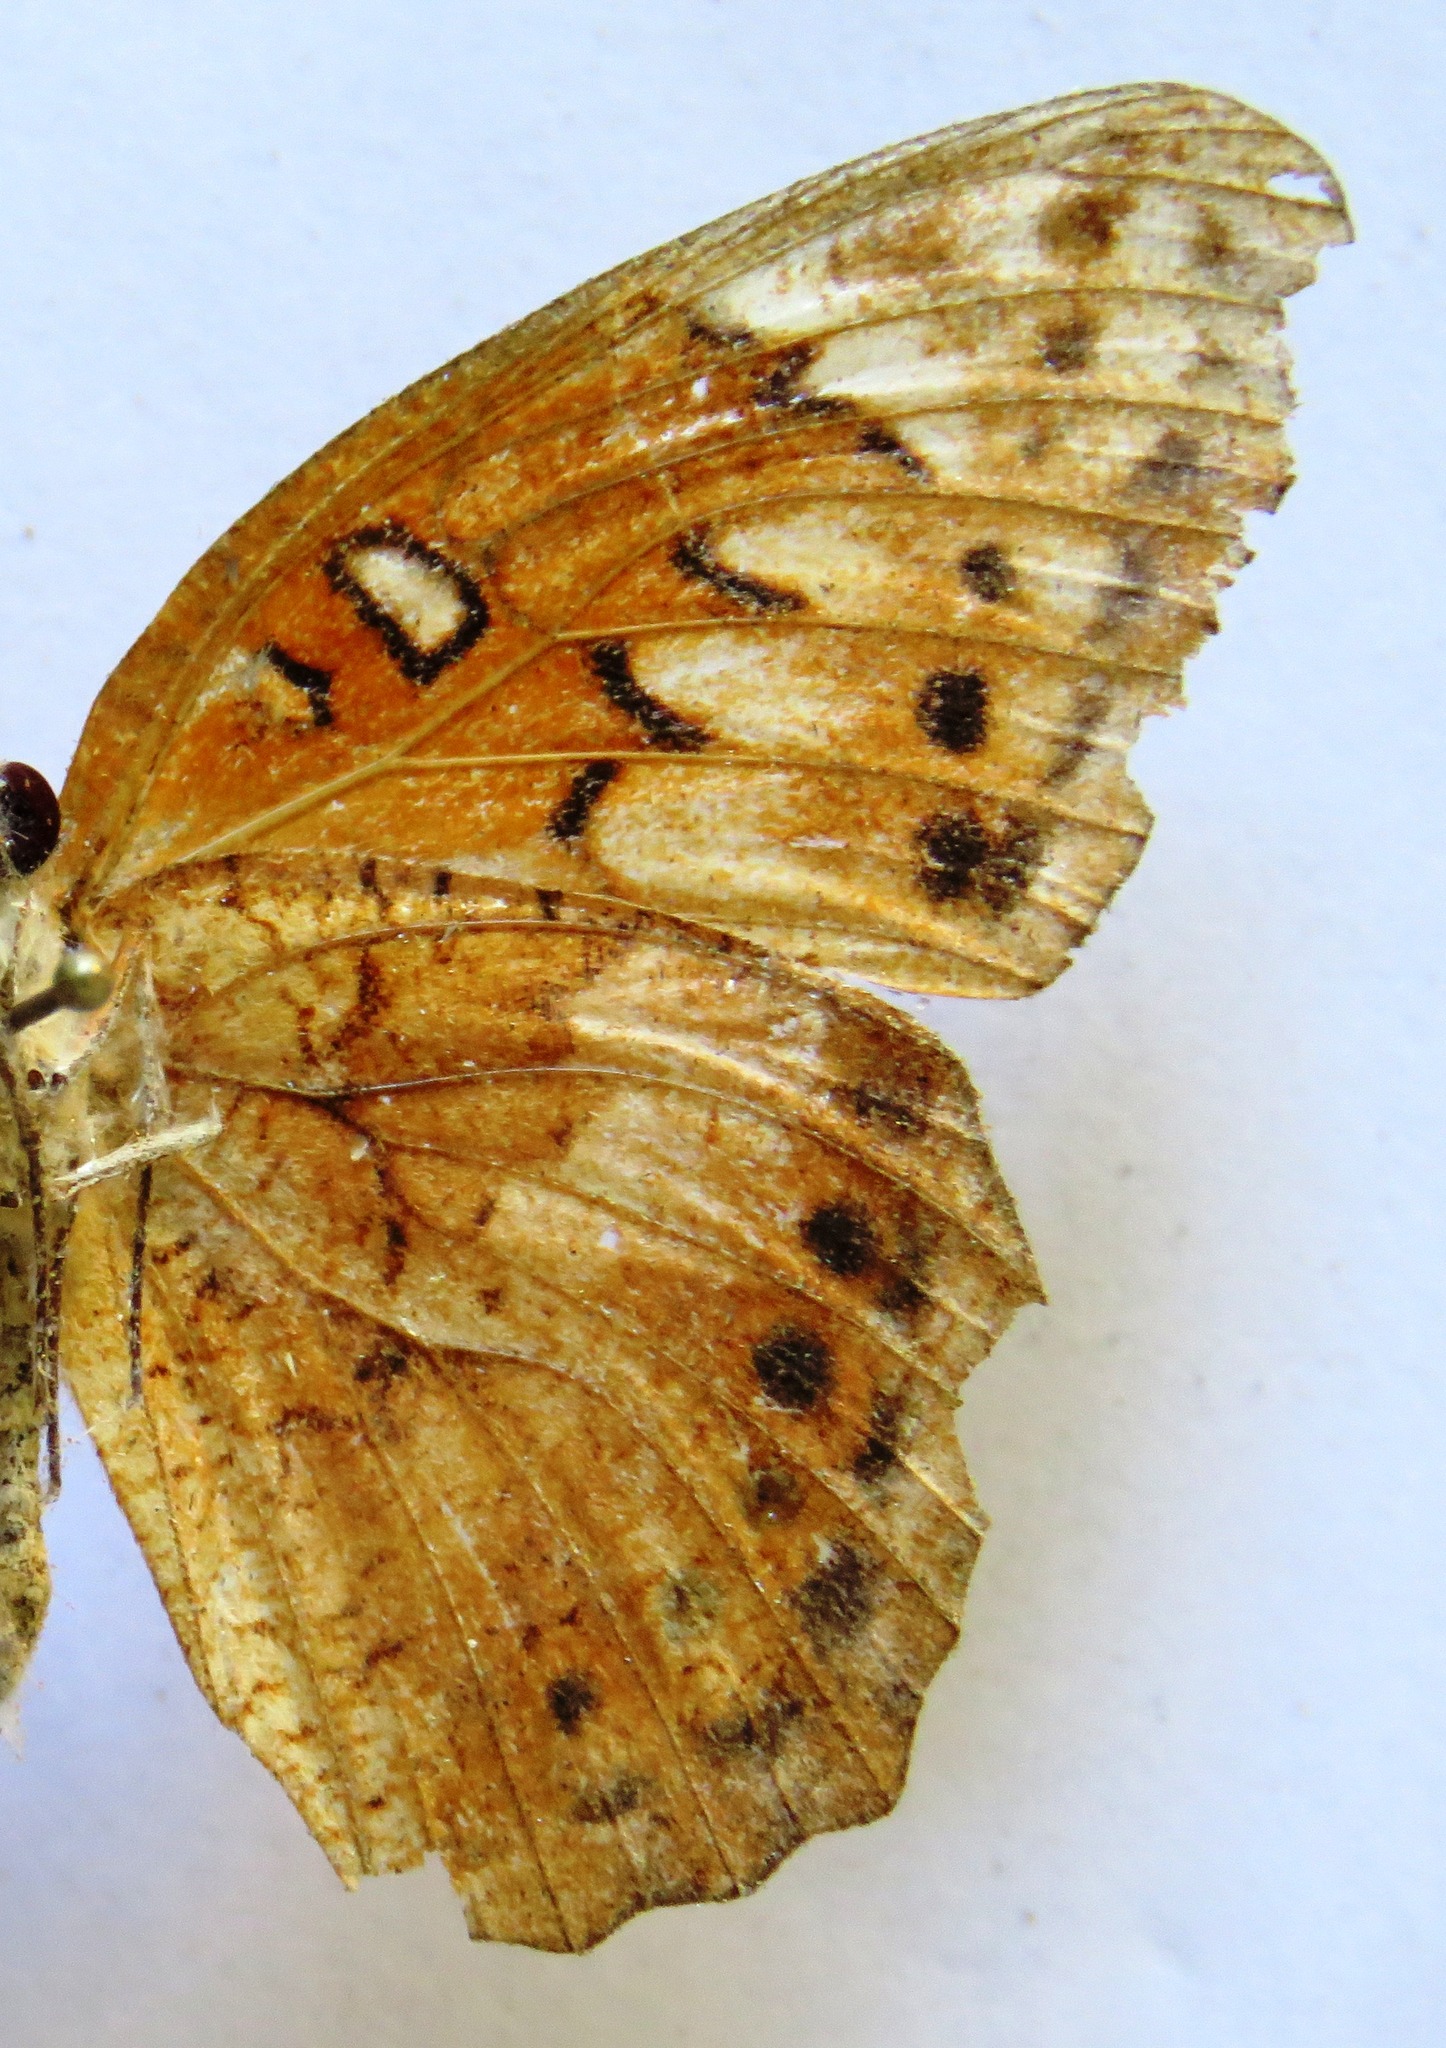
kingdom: Animalia
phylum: Arthropoda
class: Insecta
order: Lepidoptera
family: Nymphalidae
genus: Euptoieta
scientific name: Euptoieta hegesia
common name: Mexican fritillary
